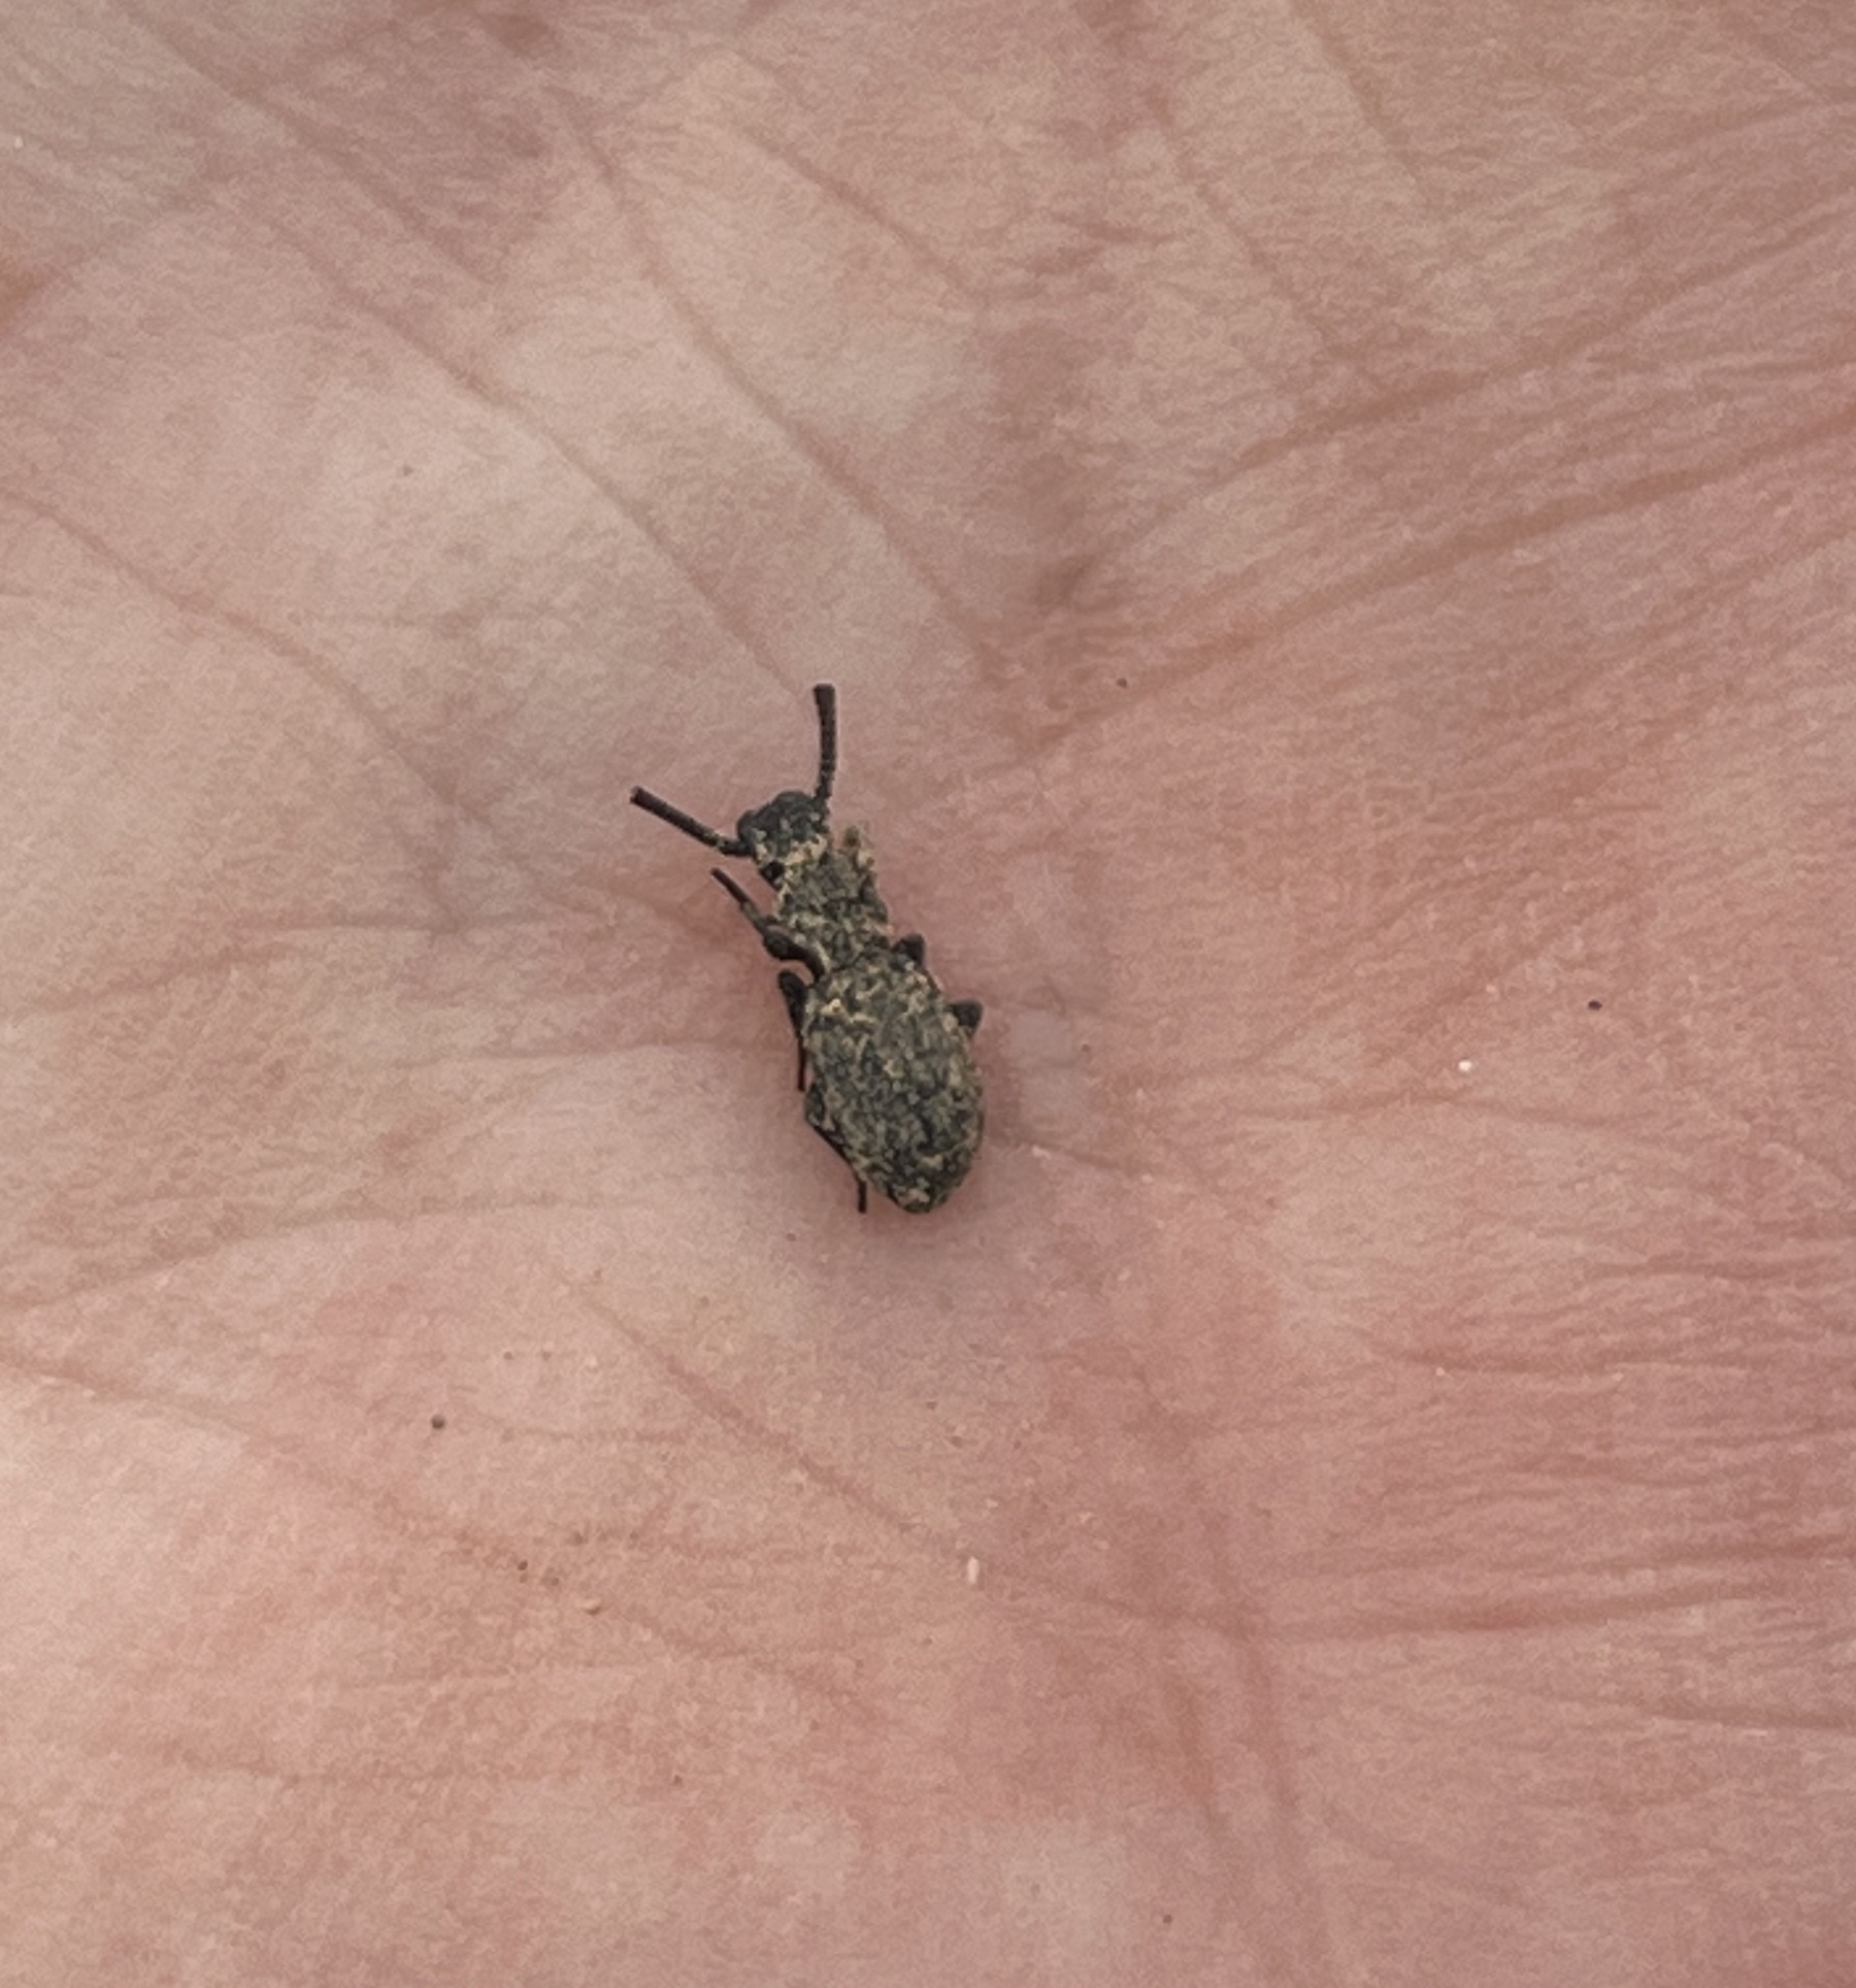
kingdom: Animalia
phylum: Arthropoda
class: Insecta
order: Coleoptera
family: Tenebrionidae
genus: Adelostoma
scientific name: Adelostoma sulcatum
